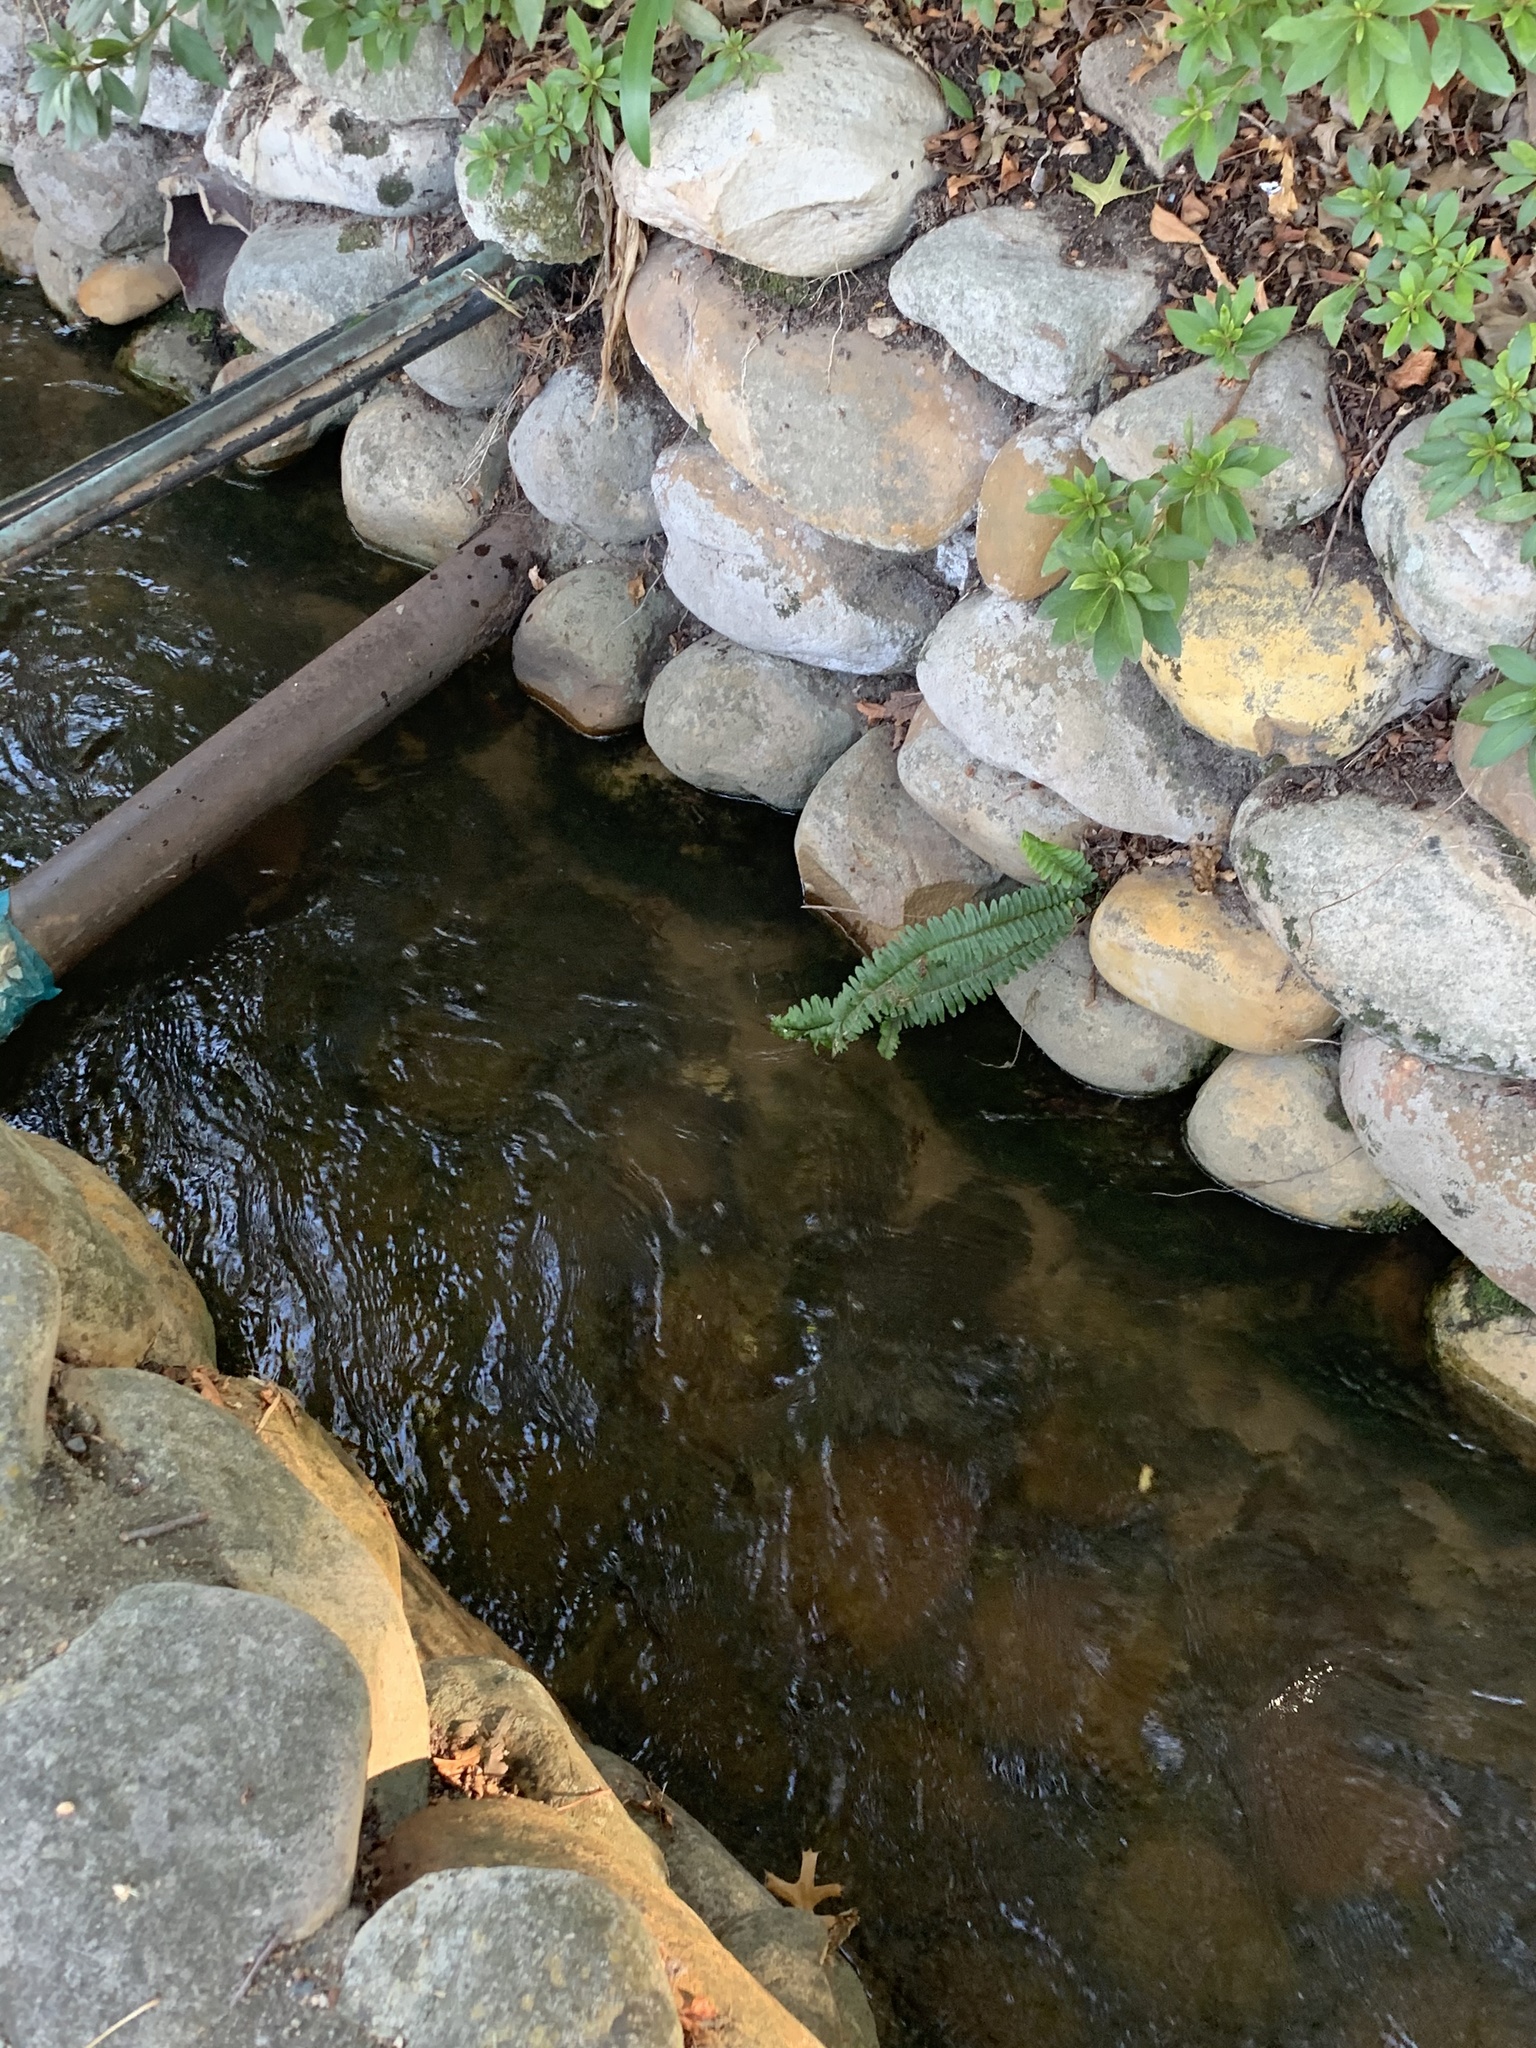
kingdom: Plantae
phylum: Tracheophyta
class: Polypodiopsida
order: Polypodiales
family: Nephrolepidaceae
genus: Nephrolepis
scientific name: Nephrolepis cordifolia
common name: Narrow swordfern
